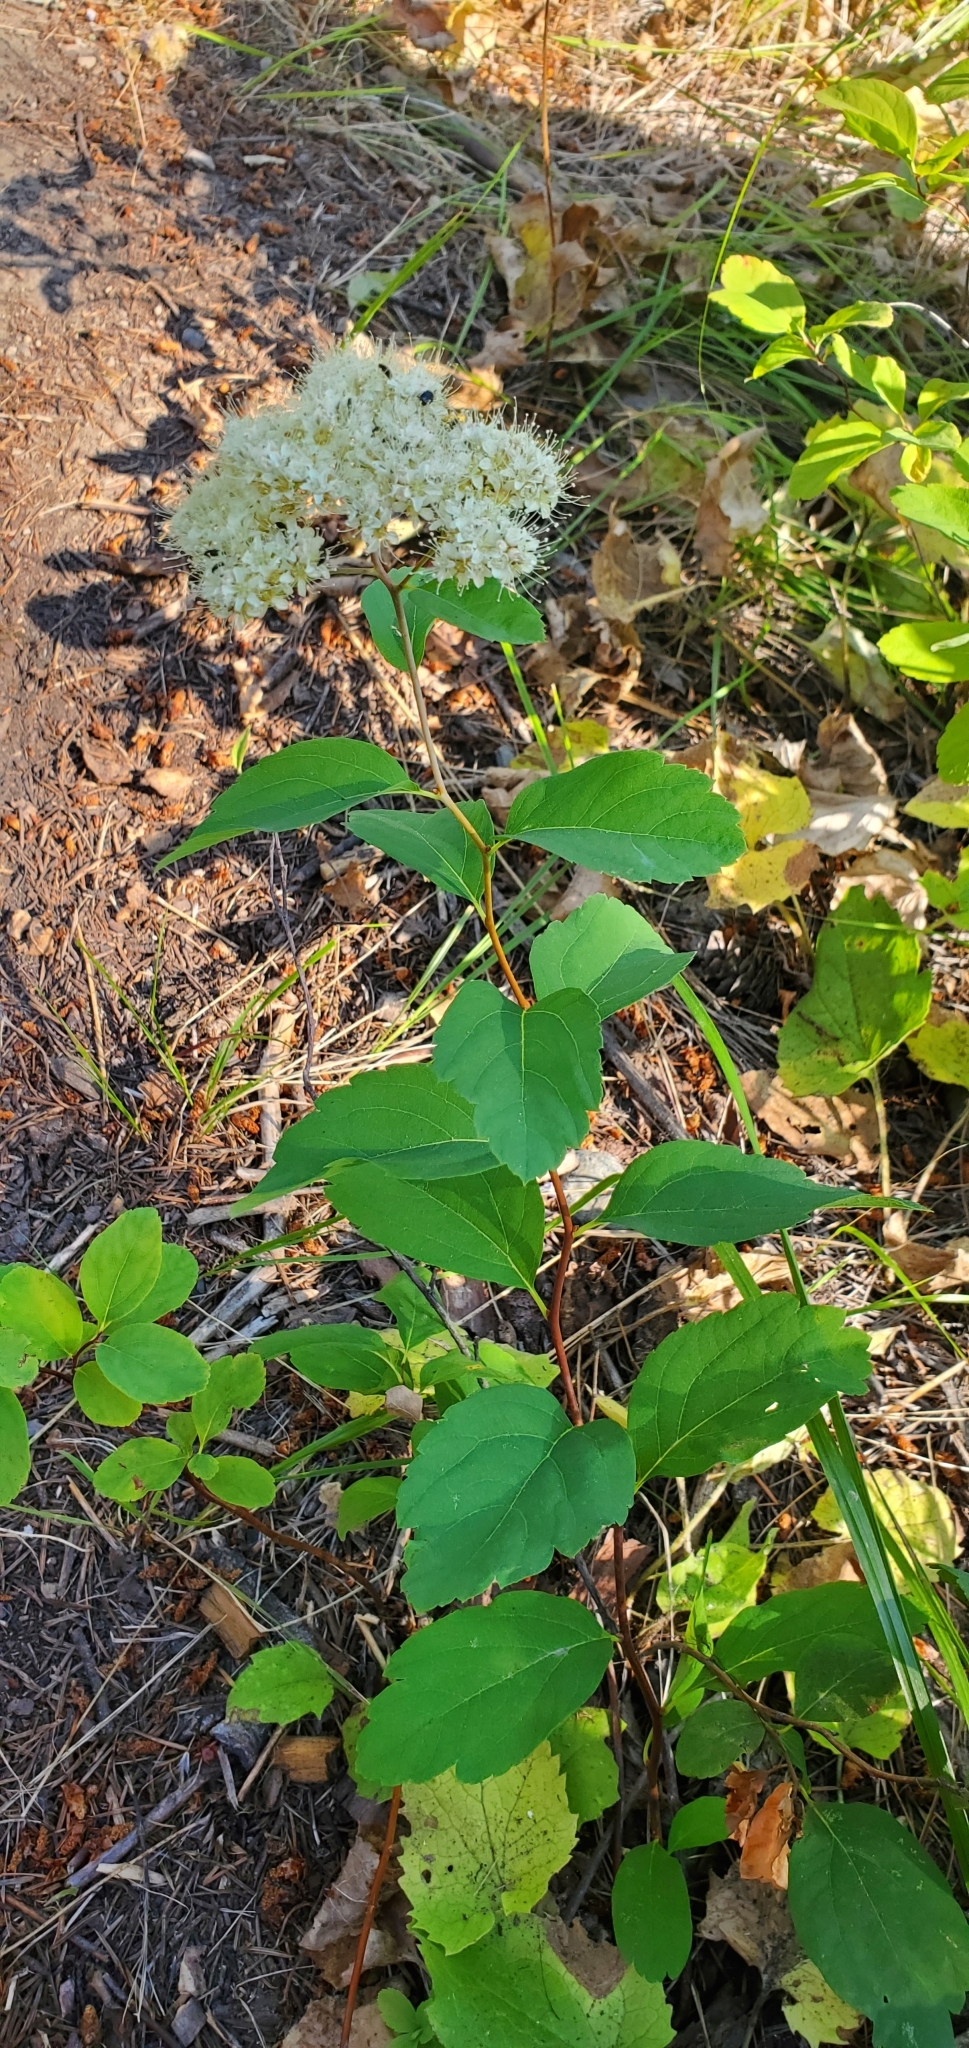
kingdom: Plantae
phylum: Tracheophyta
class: Magnoliopsida
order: Rosales
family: Rosaceae
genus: Spiraea
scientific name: Spiraea lucida
